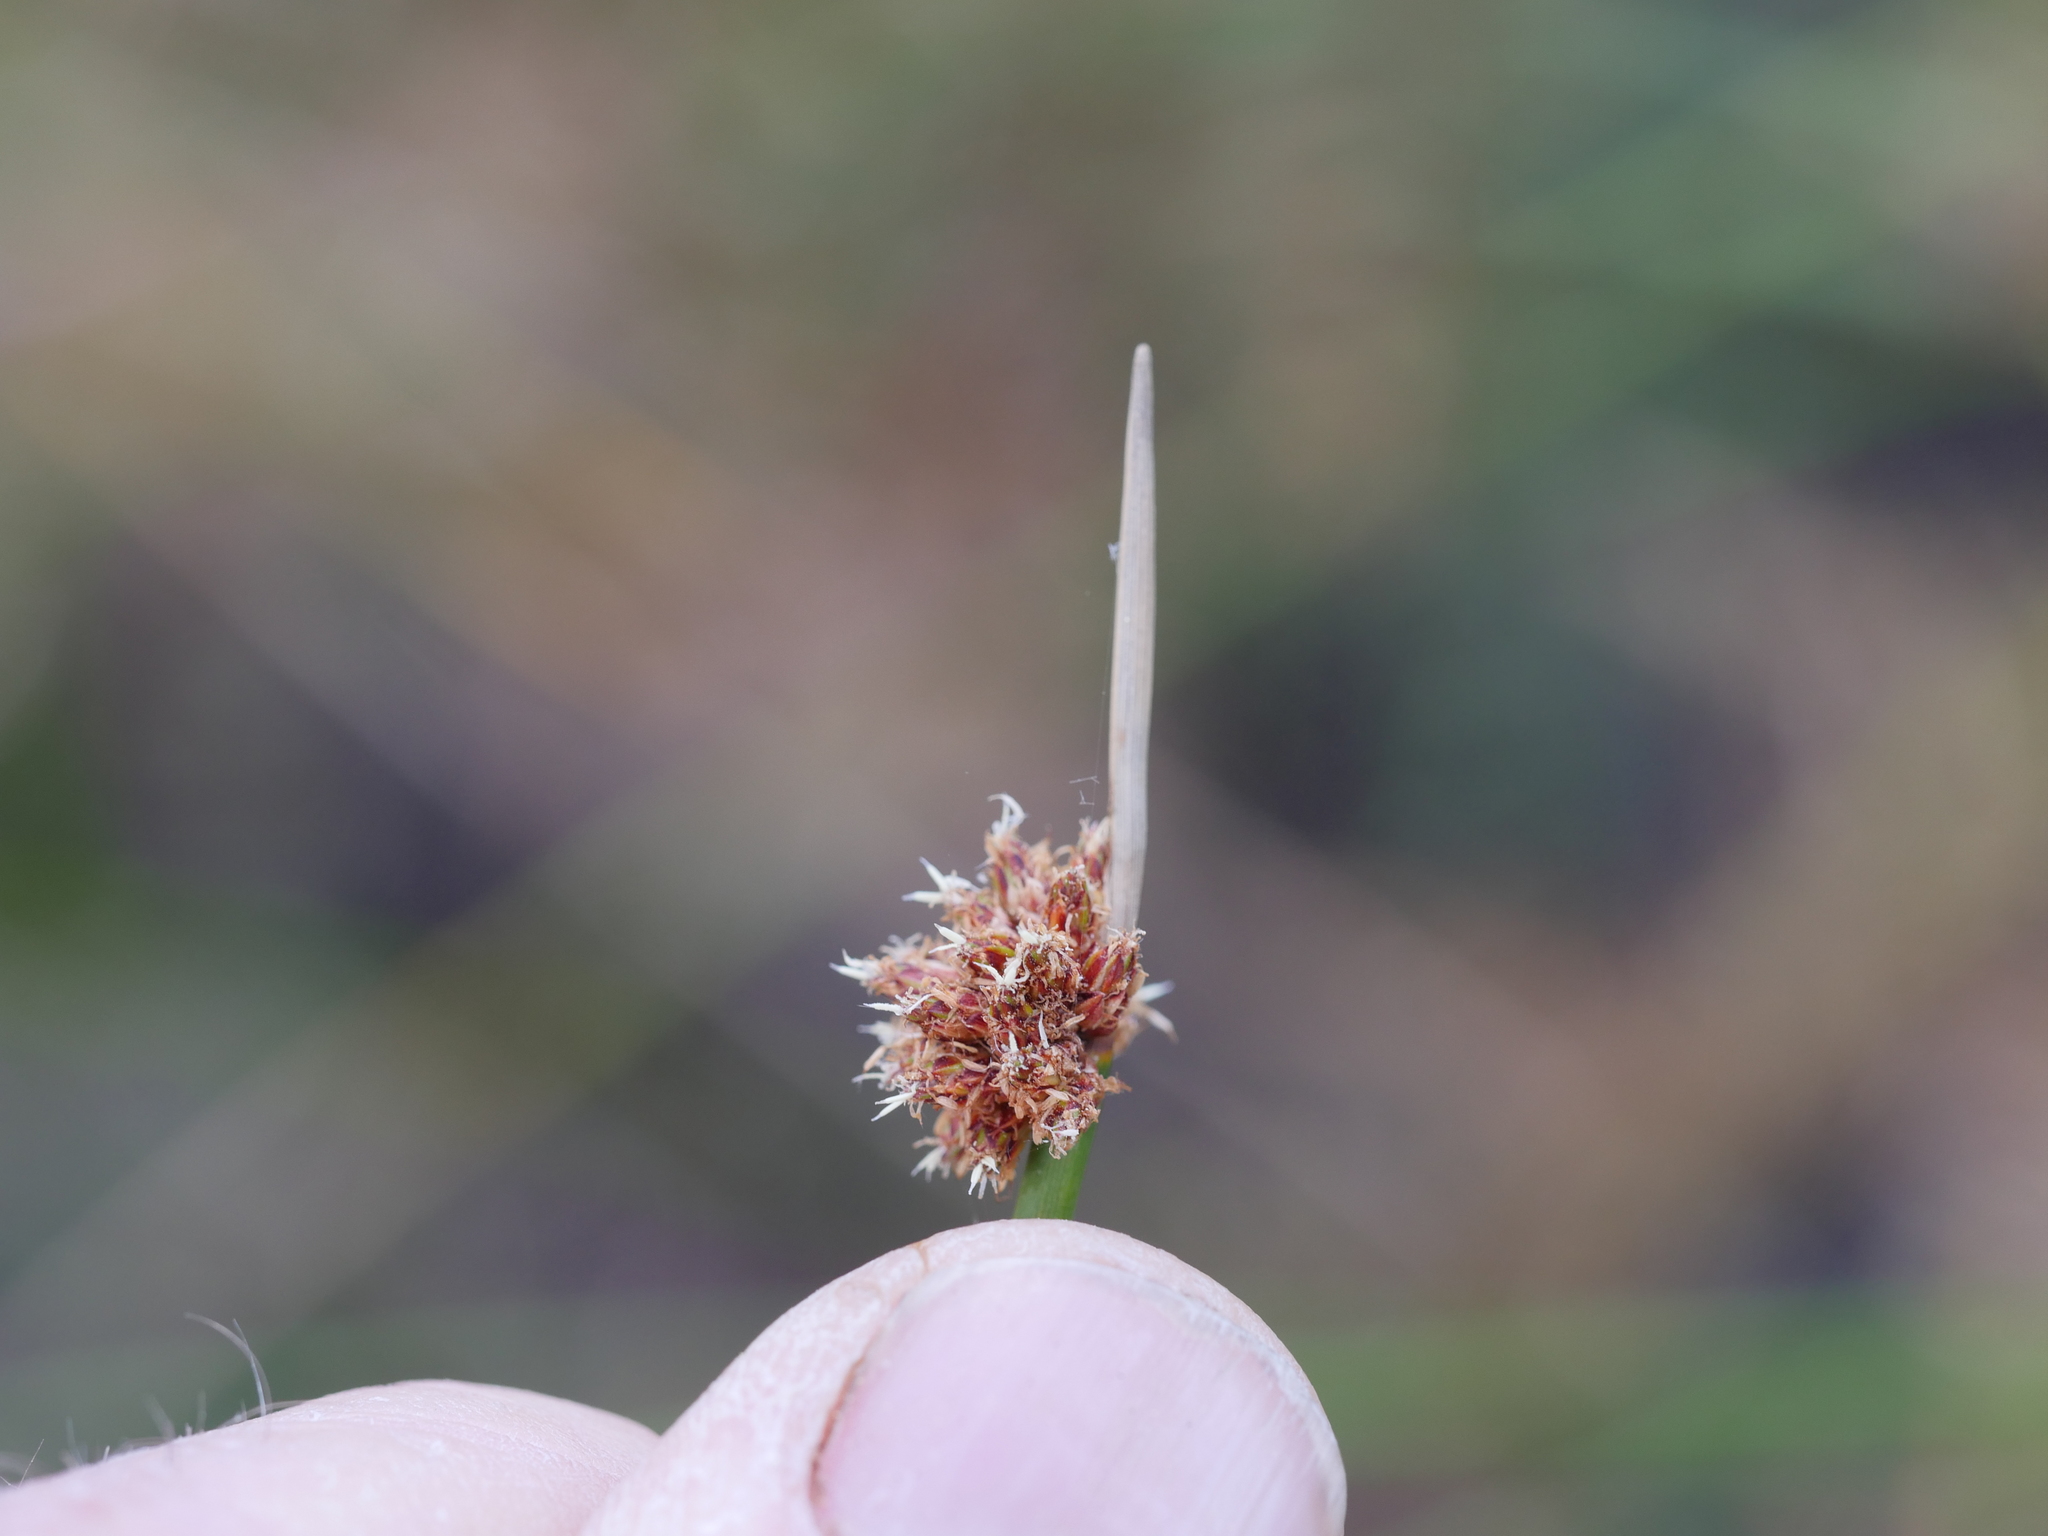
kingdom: Plantae
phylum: Tracheophyta
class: Liliopsida
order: Poales
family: Cyperaceae
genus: Ficinia
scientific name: Ficinia nodosa
